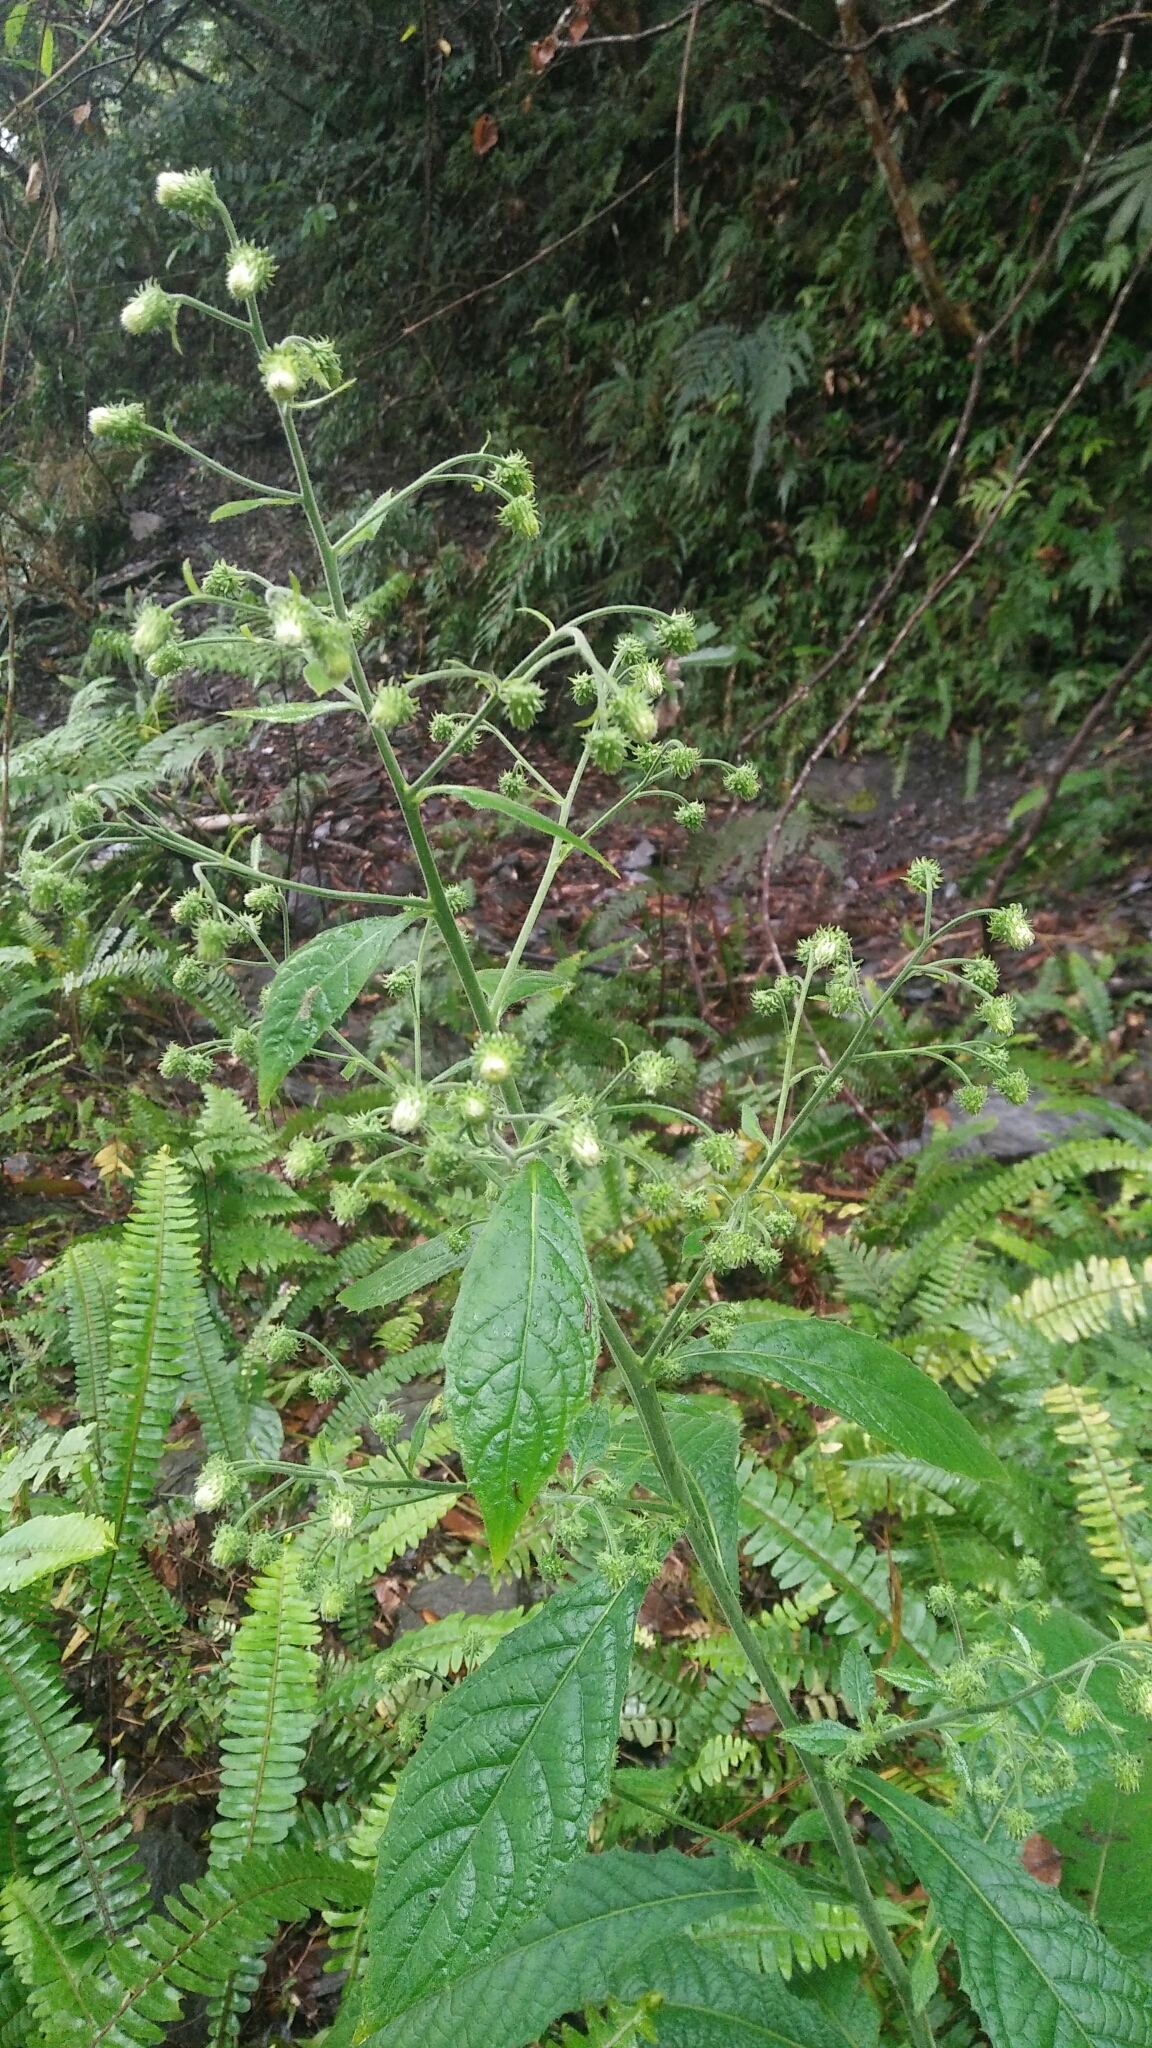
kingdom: Plantae
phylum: Tracheophyta
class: Magnoliopsida
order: Asterales
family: Asteraceae
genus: Blumea
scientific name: Blumea aromatica
